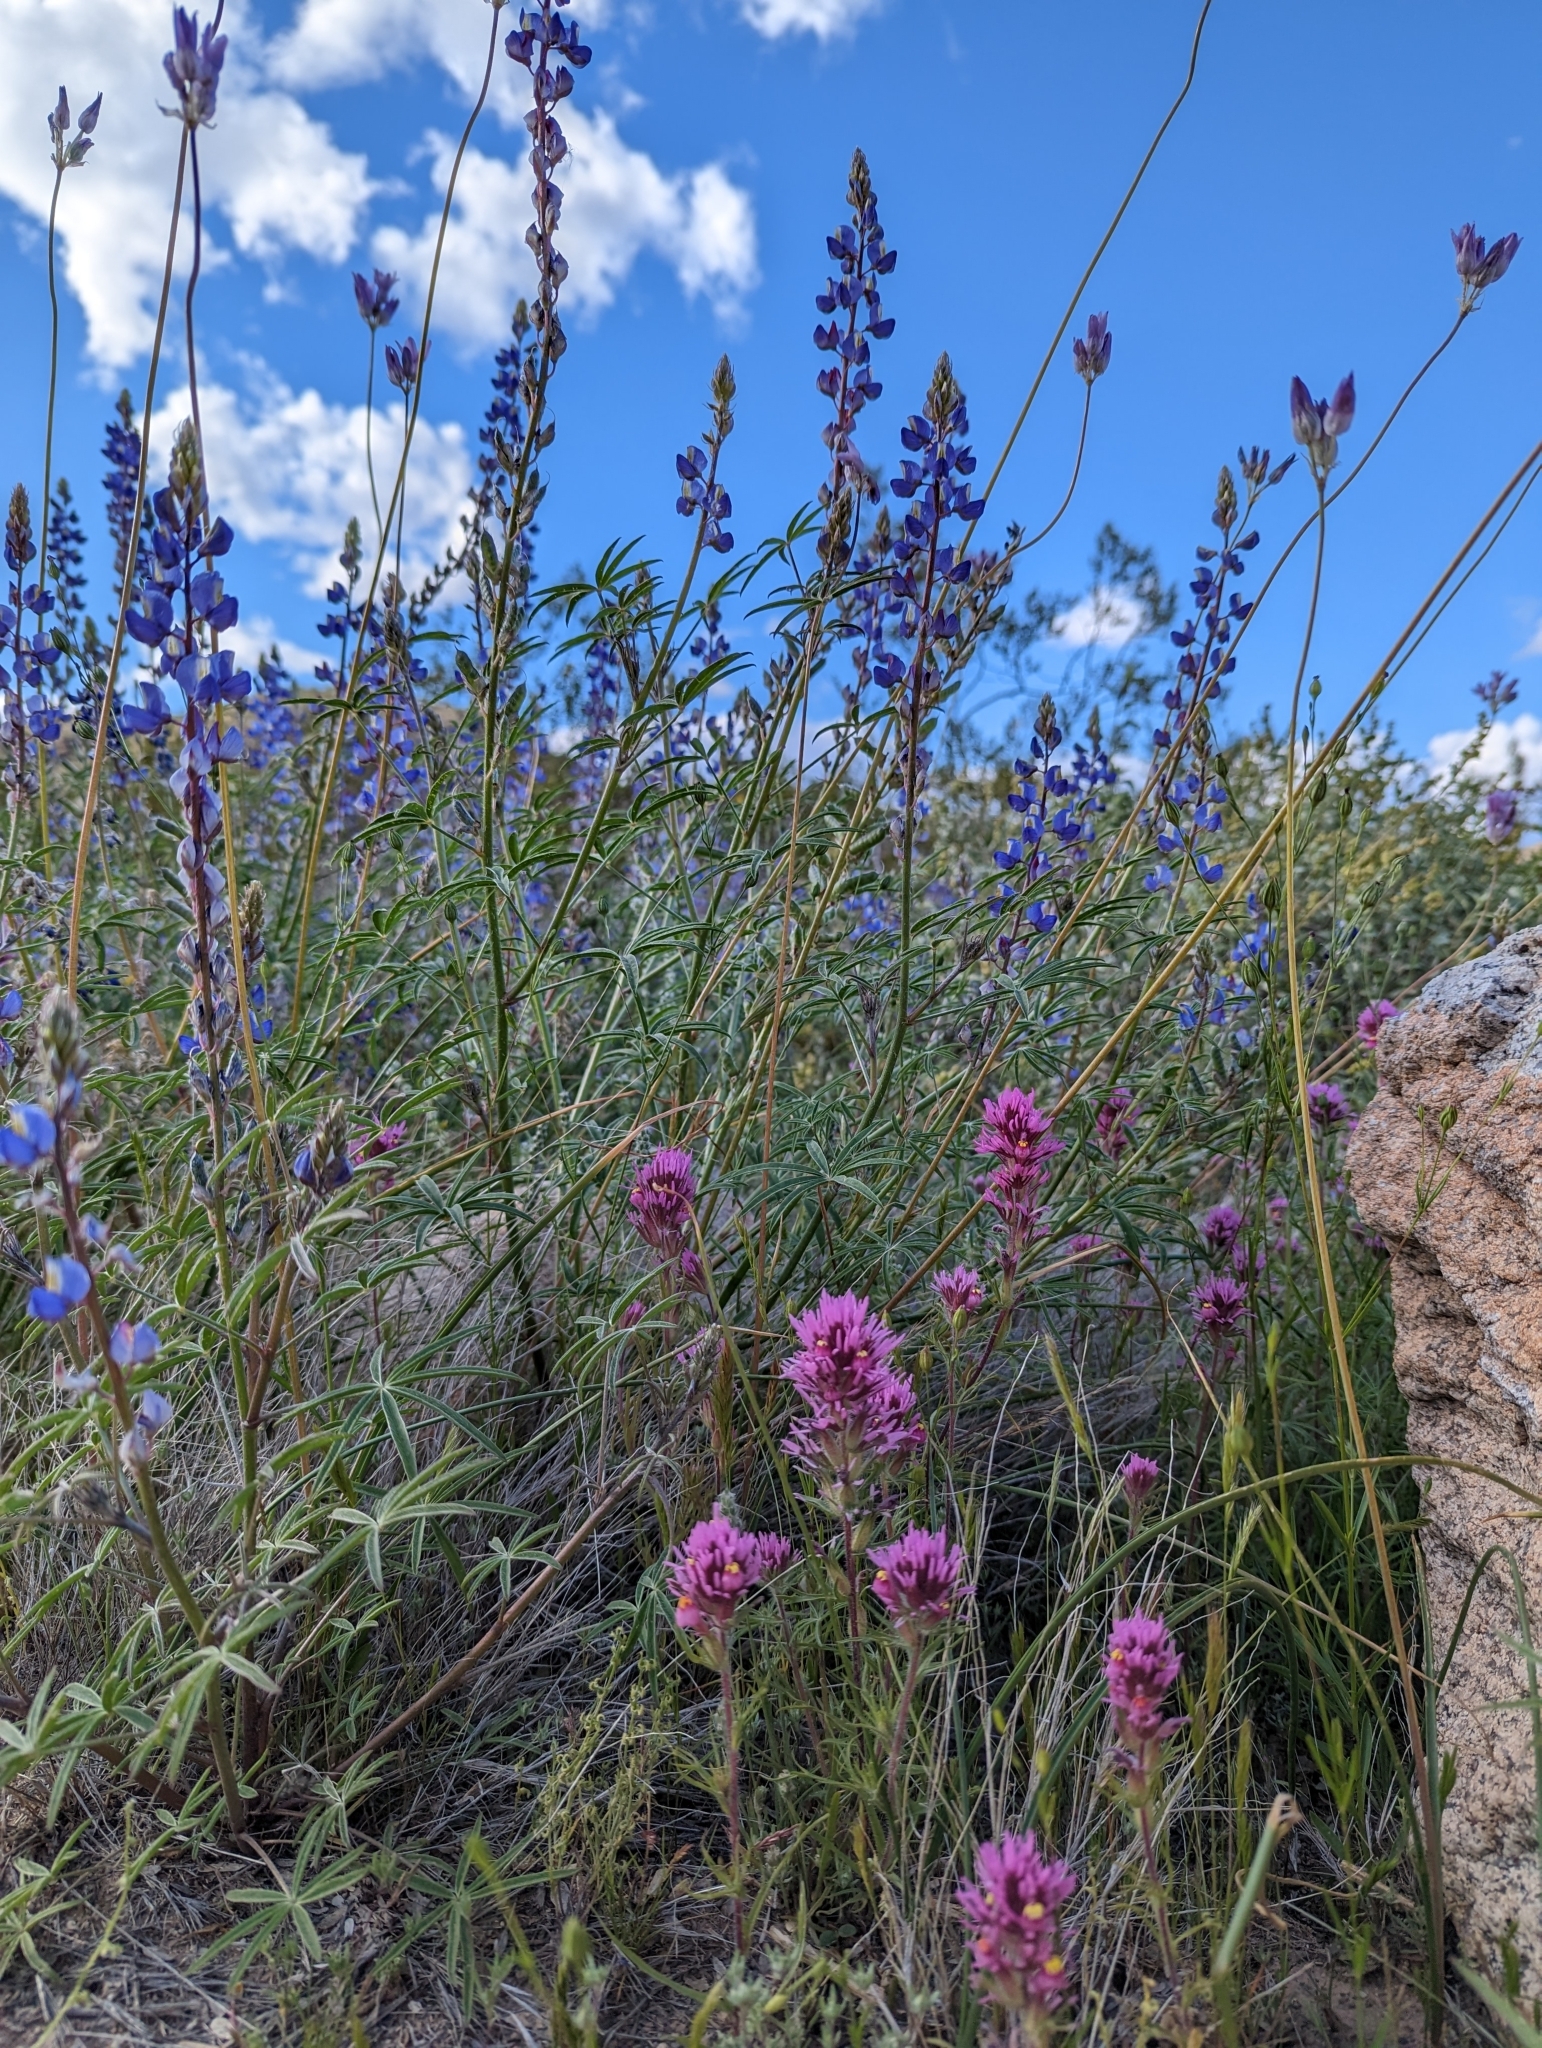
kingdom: Plantae
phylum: Tracheophyta
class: Magnoliopsida
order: Fabales
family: Fabaceae
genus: Lupinus
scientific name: Lupinus sparsiflorus
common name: Coulter's lupine
